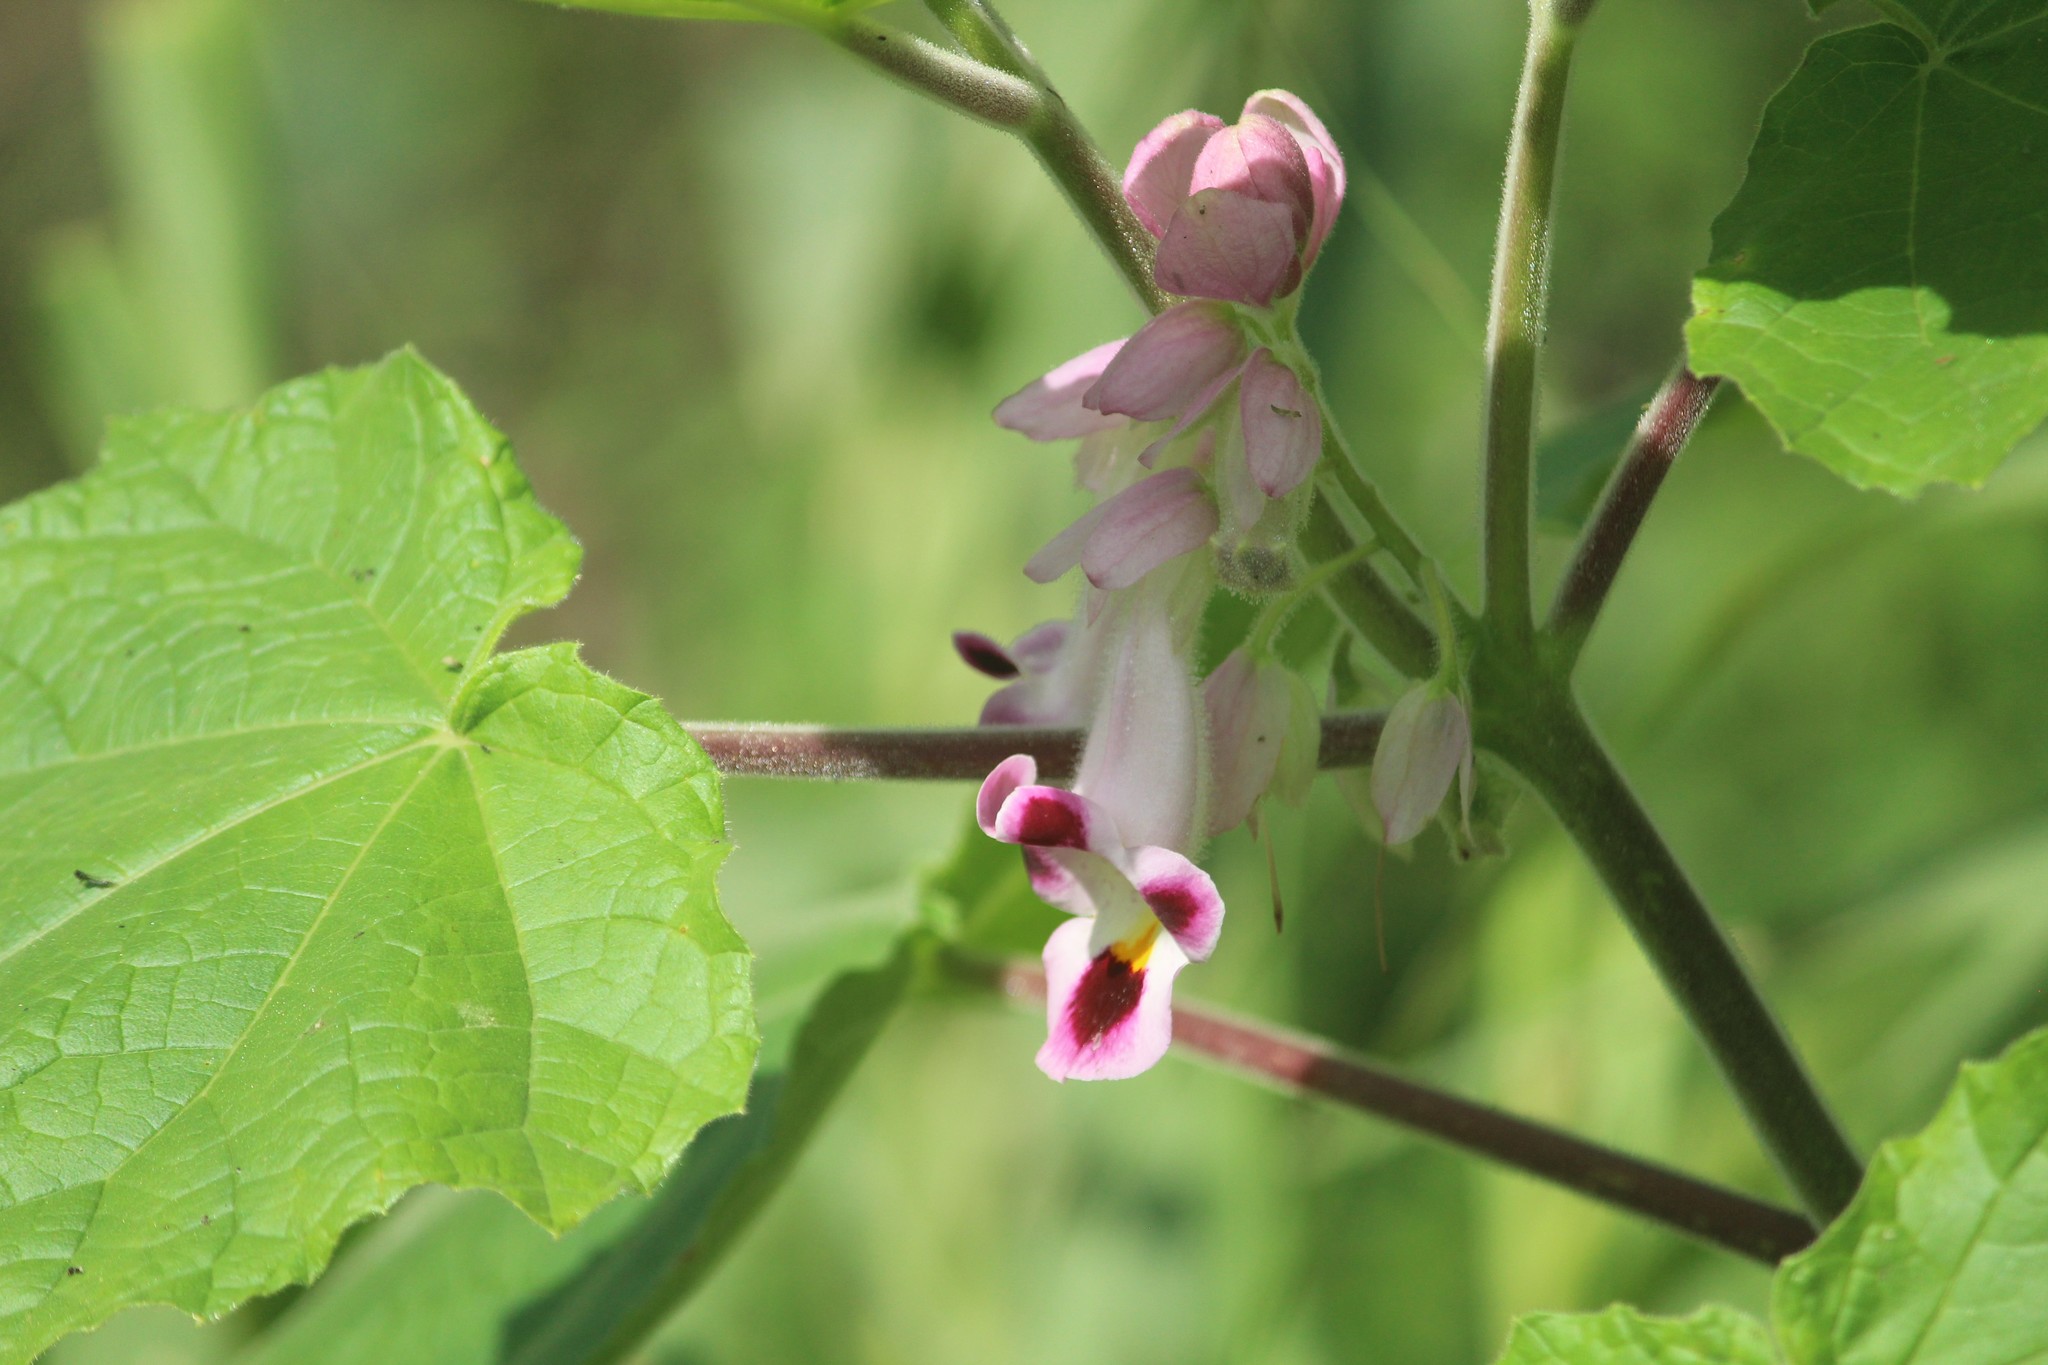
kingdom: Plantae
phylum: Tracheophyta
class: Magnoliopsida
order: Lamiales
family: Martyniaceae
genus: Martynia
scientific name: Martynia annua
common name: Tiger's-claw
